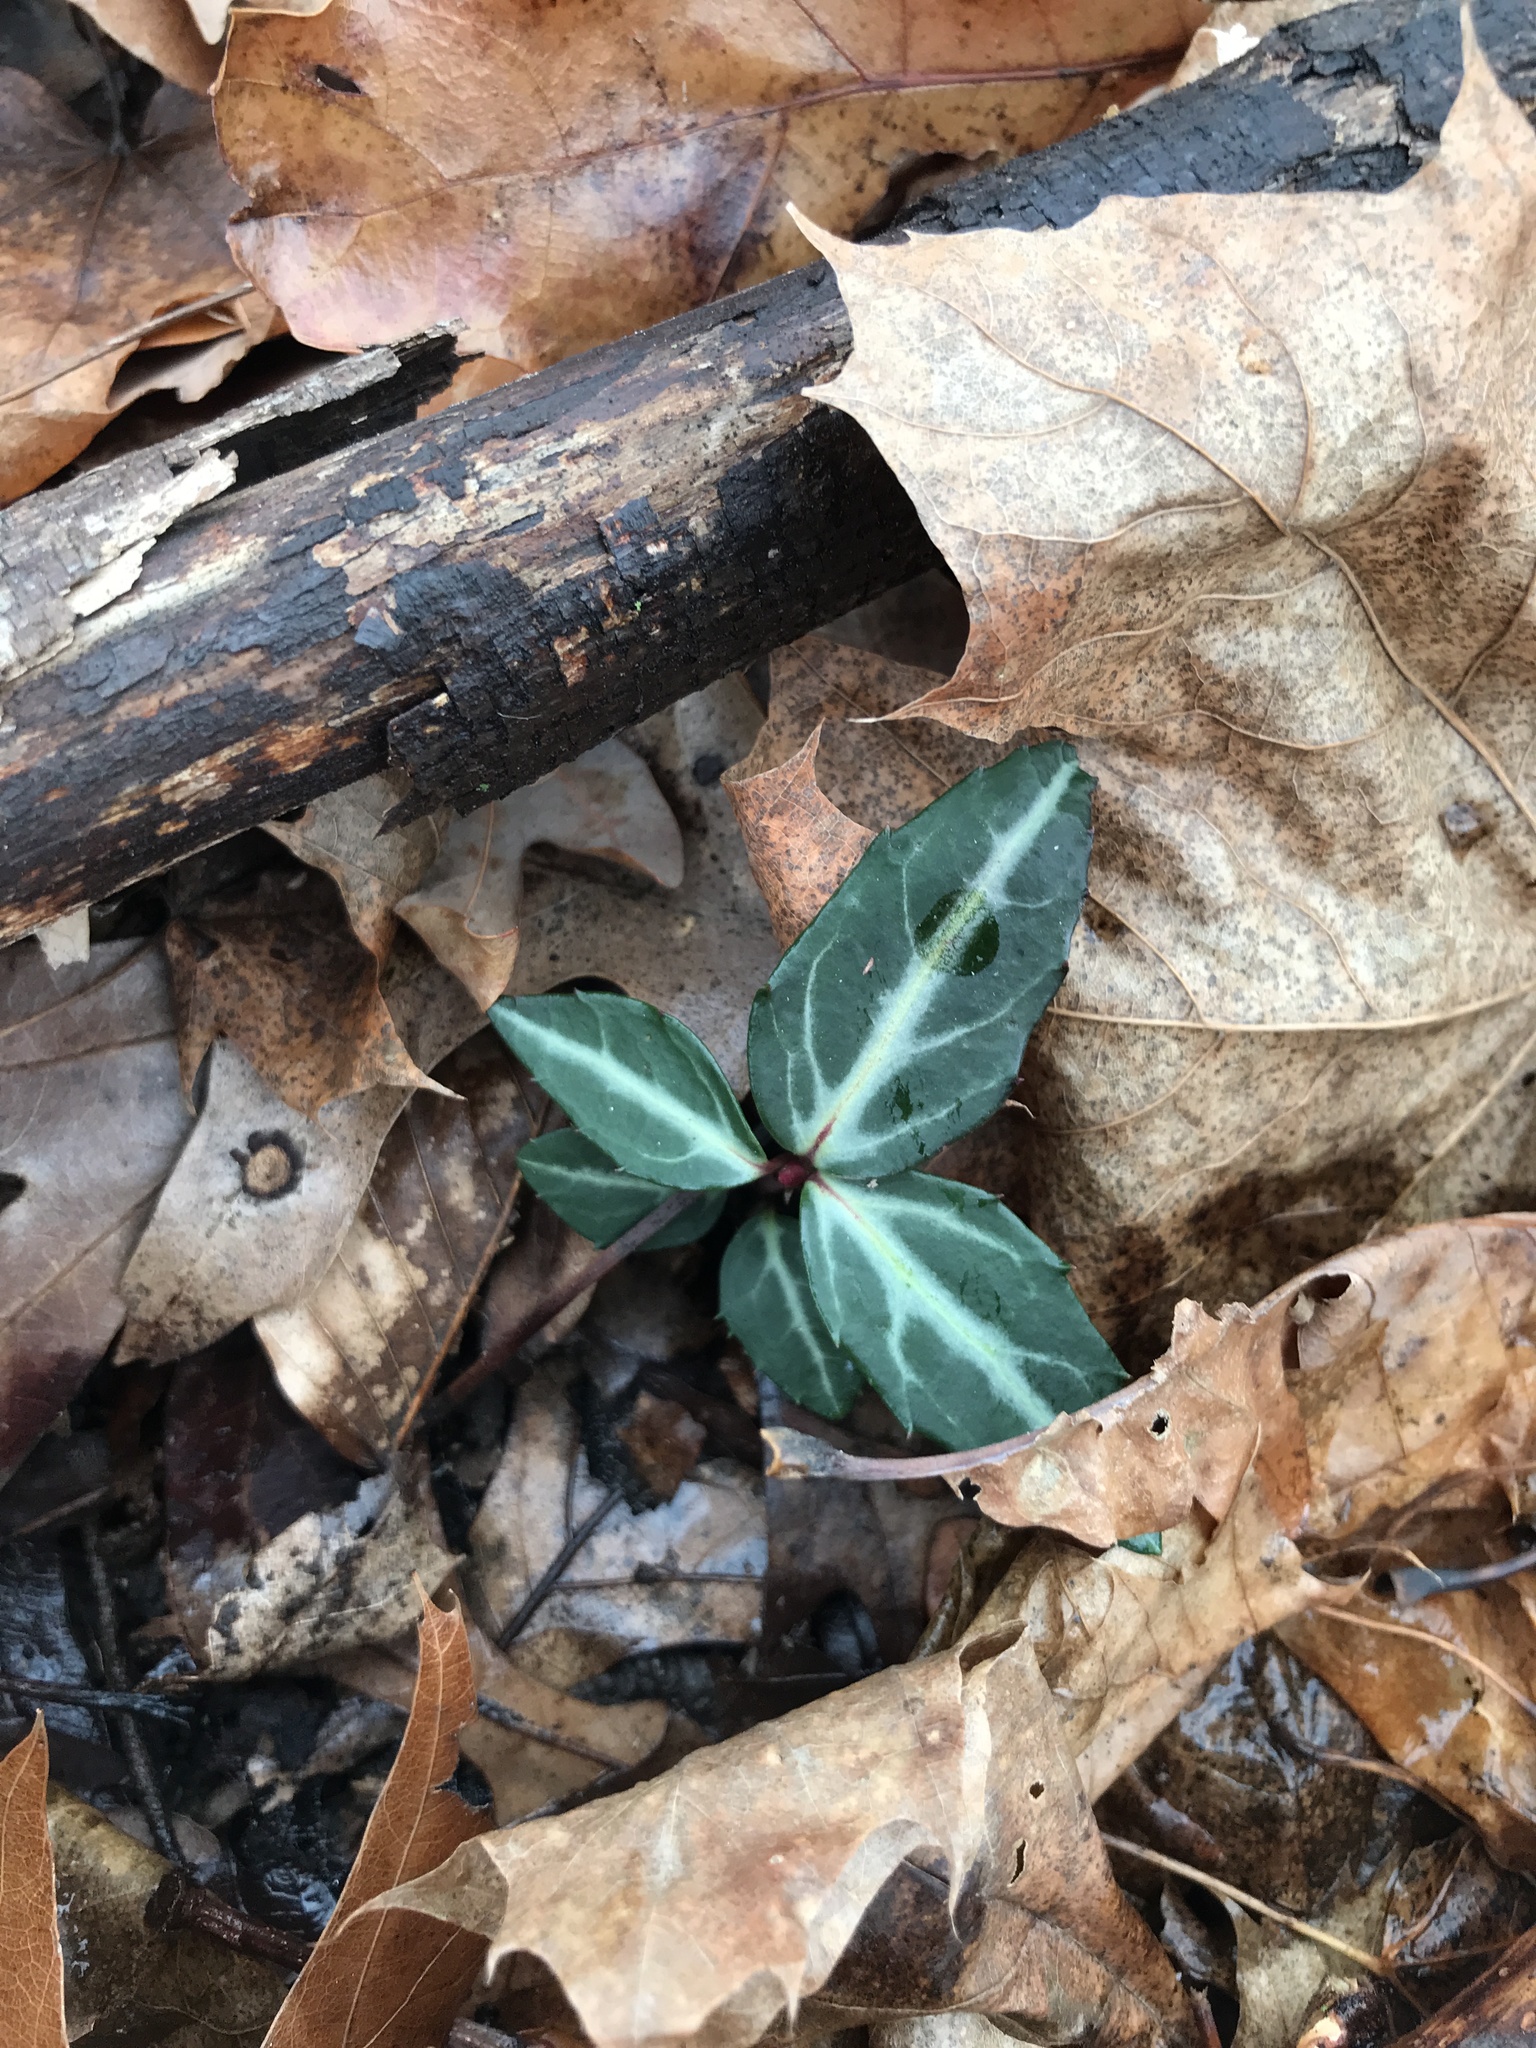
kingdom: Plantae
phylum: Tracheophyta
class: Magnoliopsida
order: Ericales
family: Ericaceae
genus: Chimaphila
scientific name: Chimaphila maculata
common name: Spotted pipsissewa
